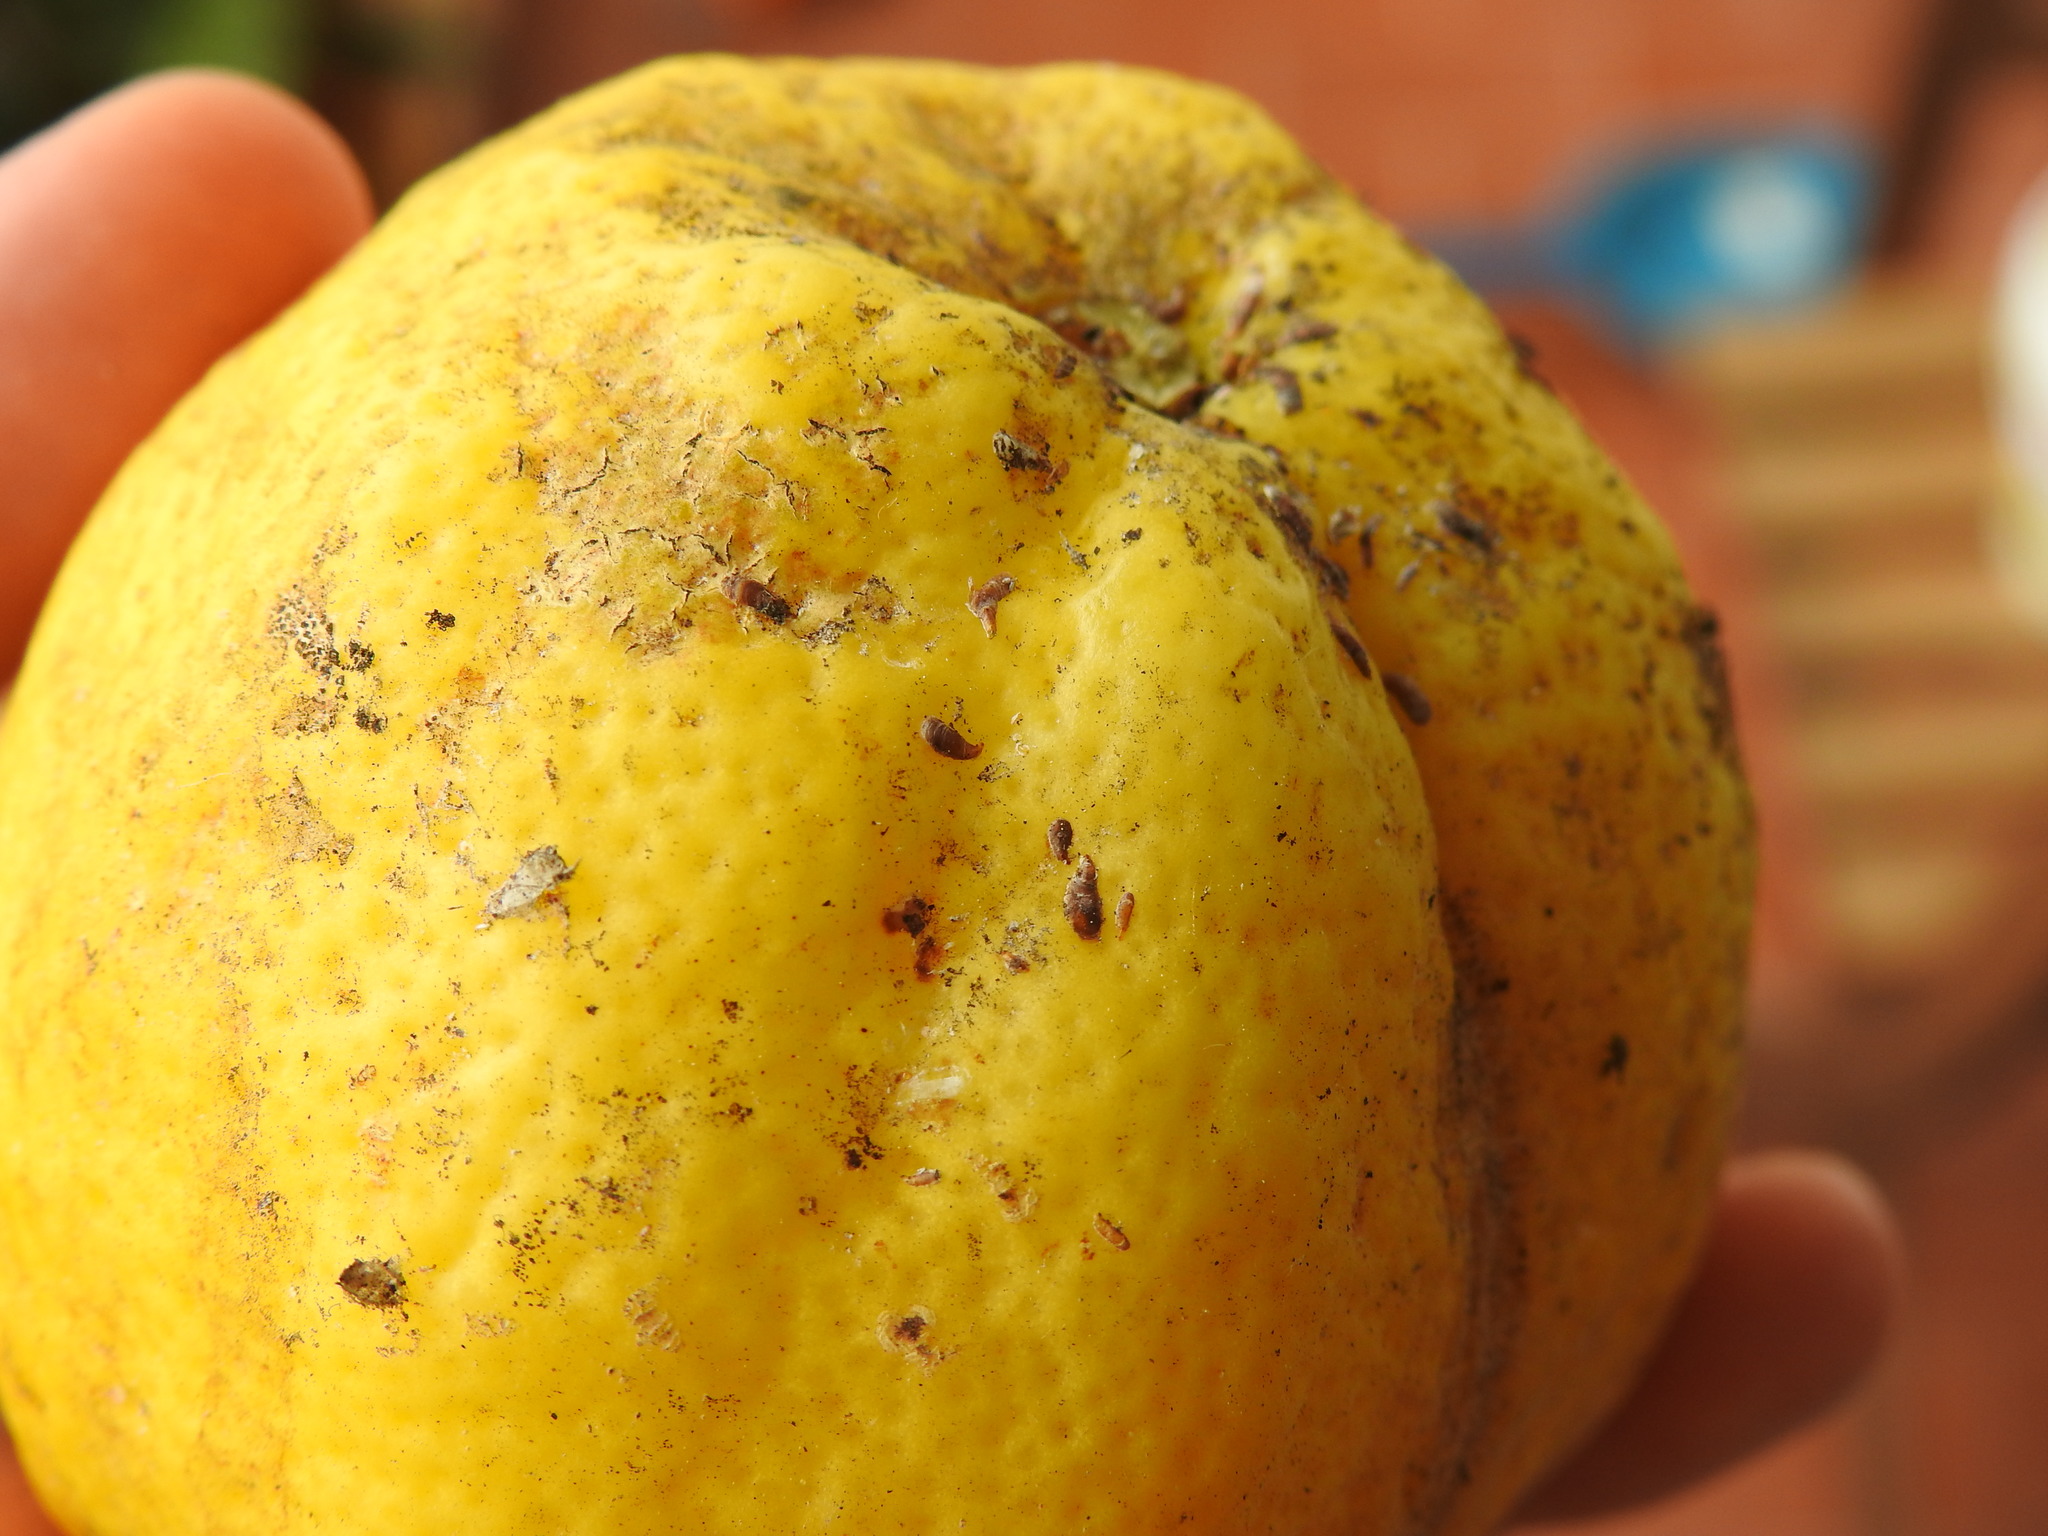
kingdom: Animalia
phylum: Arthropoda
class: Insecta
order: Hemiptera
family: Diaspididae
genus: Lepidosaphes
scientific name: Lepidosaphes beckii
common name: Purple scale
